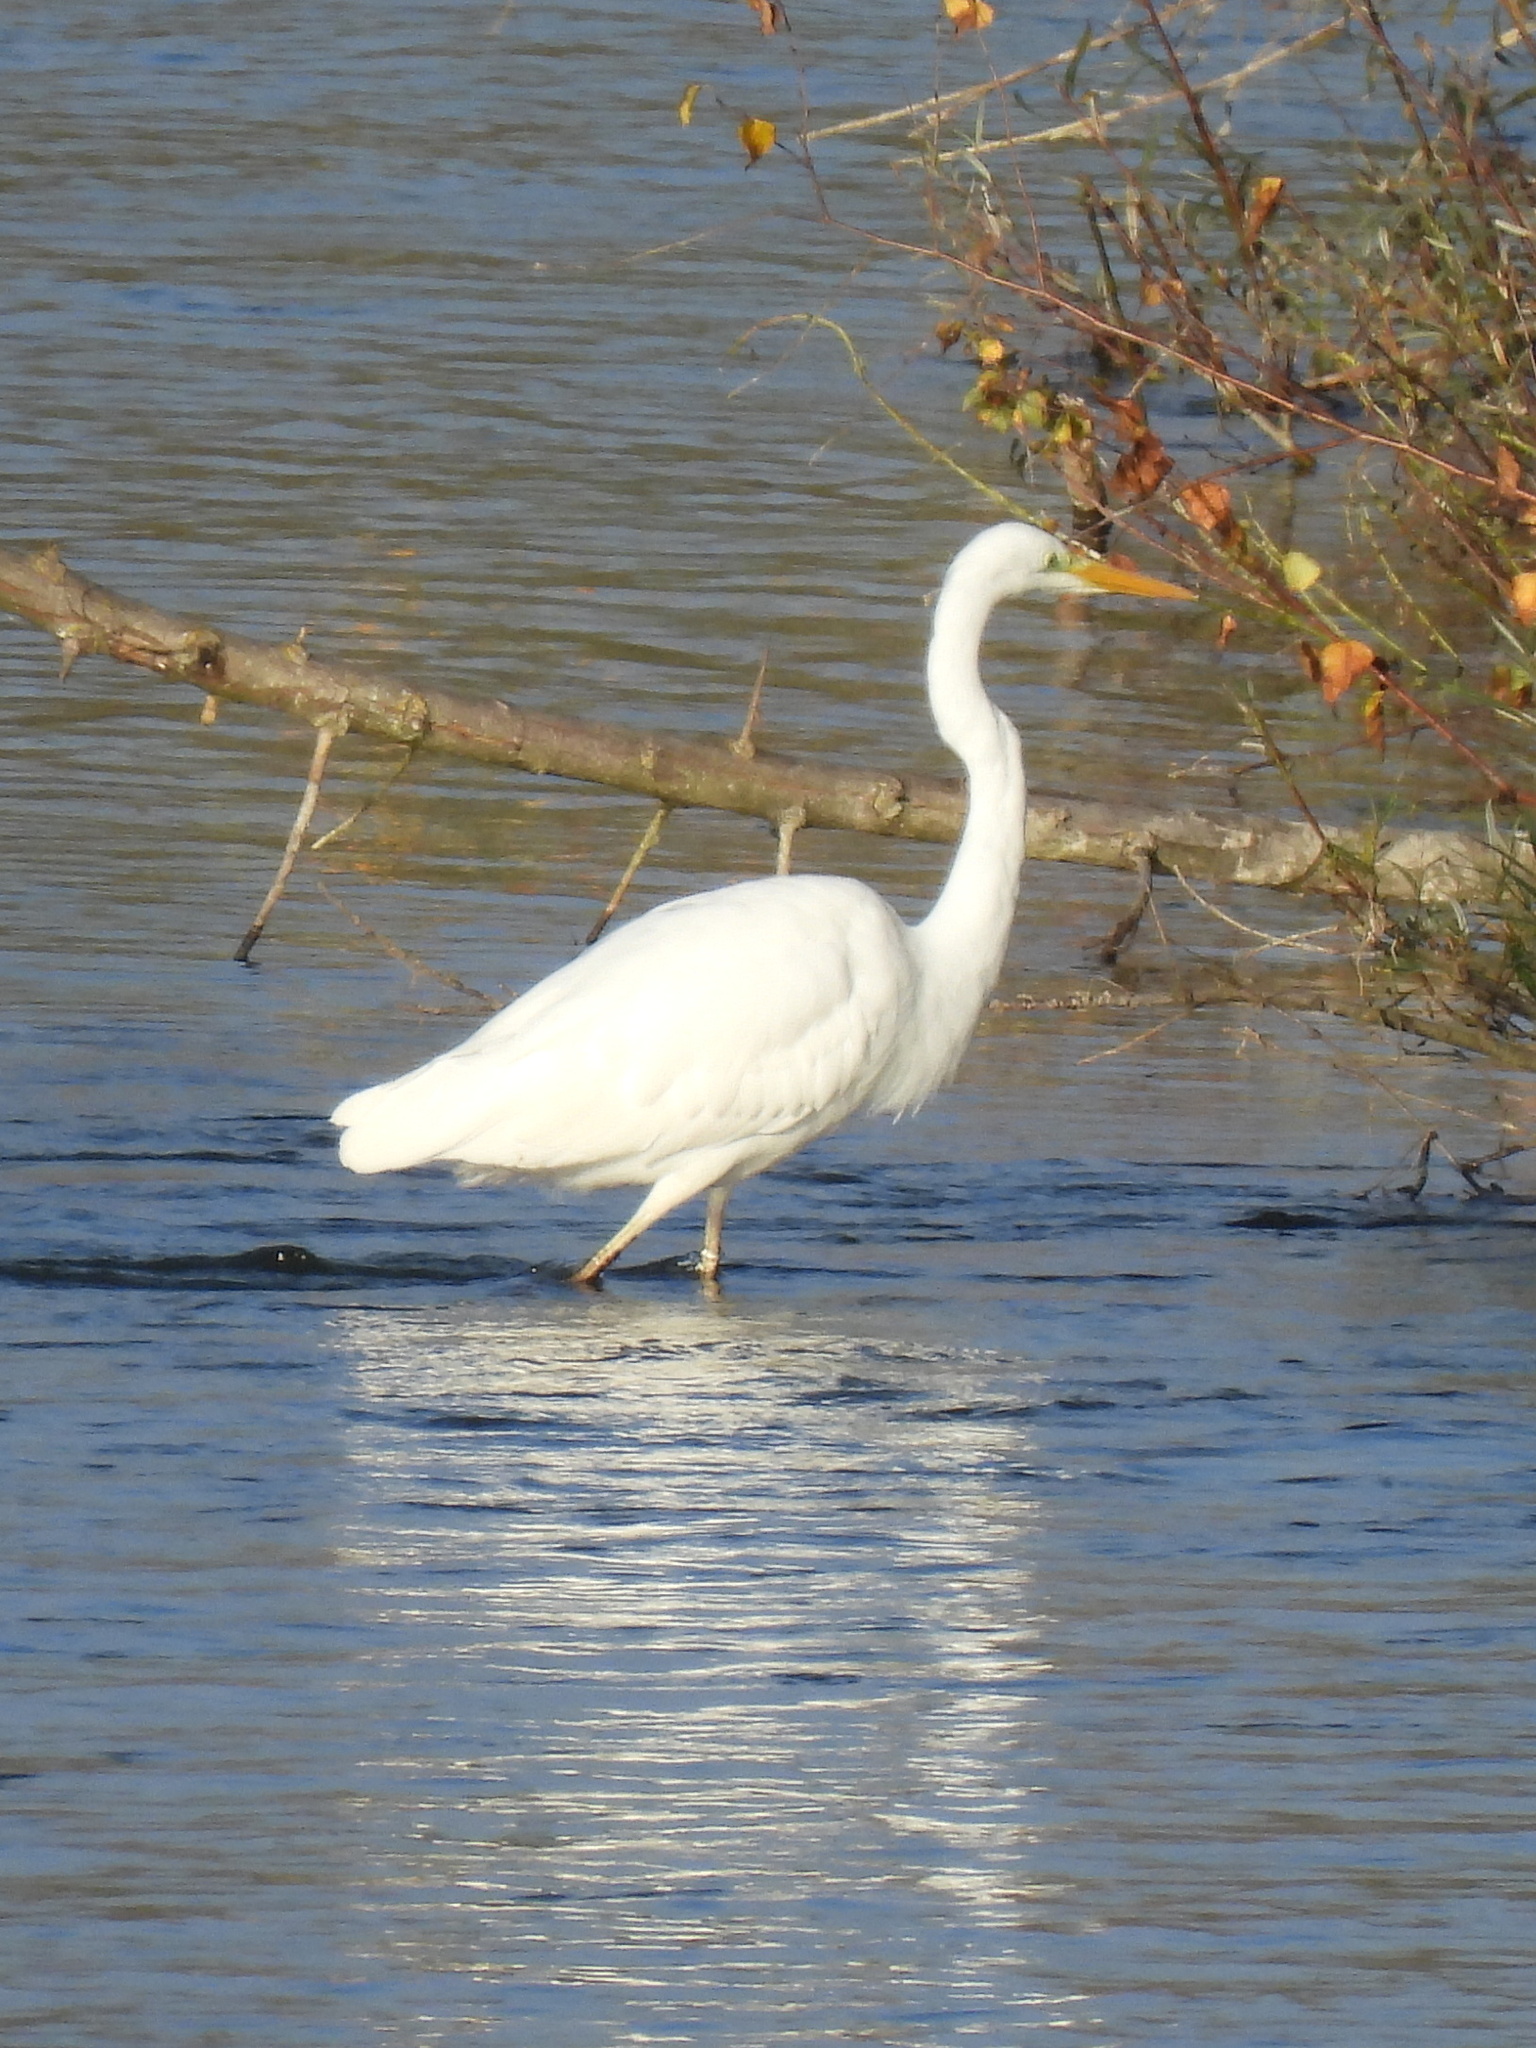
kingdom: Animalia
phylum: Chordata
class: Aves
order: Pelecaniformes
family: Ardeidae
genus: Ardea
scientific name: Ardea alba
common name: Great egret
